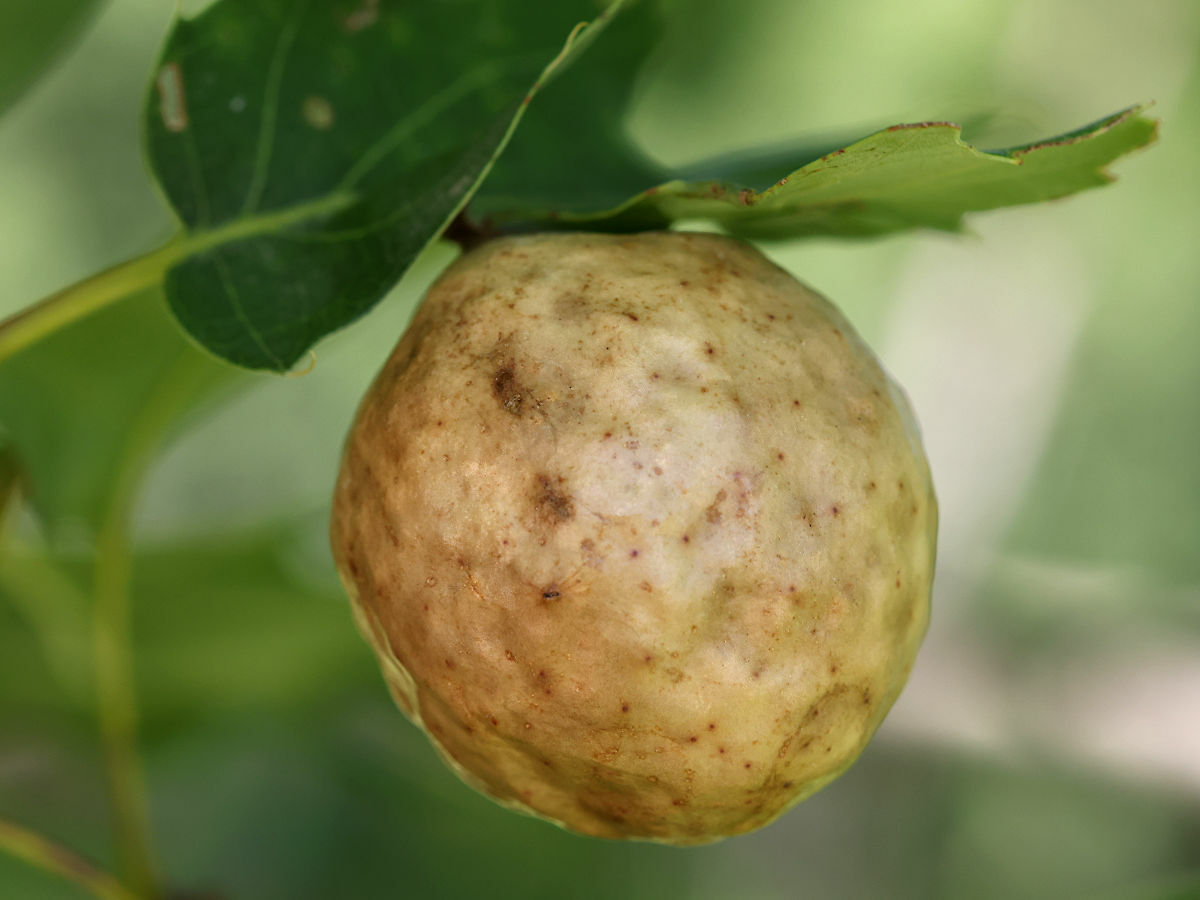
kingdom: Animalia
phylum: Arthropoda
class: Insecta
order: Hymenoptera
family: Cynipidae
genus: Amphibolips
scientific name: Amphibolips
